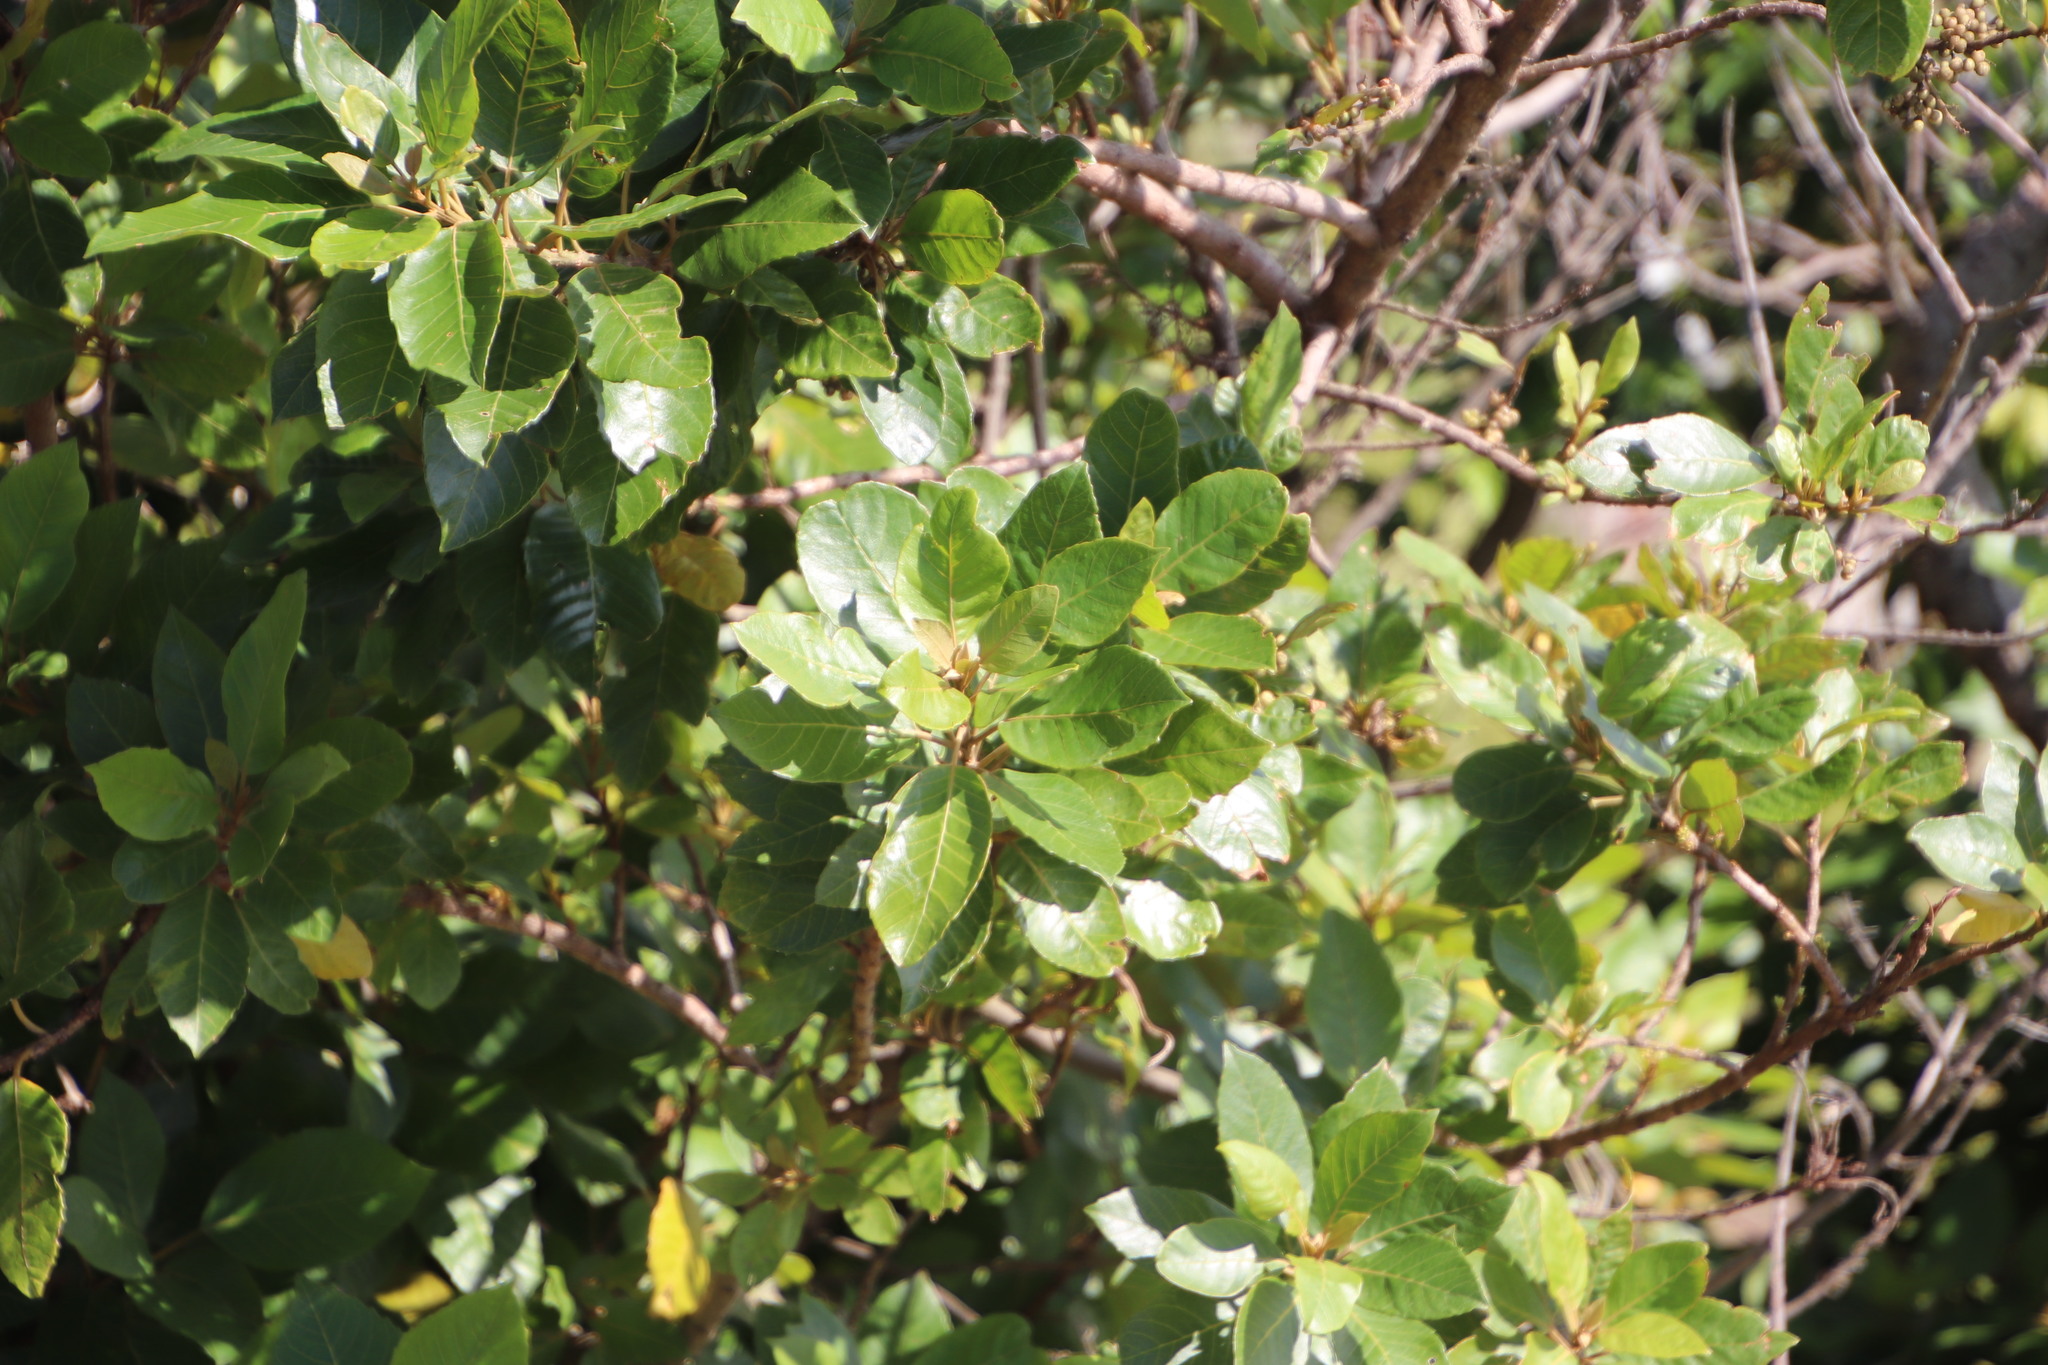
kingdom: Plantae
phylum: Tracheophyta
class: Magnoliopsida
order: Ericales
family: Primulaceae
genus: Maesa
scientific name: Maesa lanceolata
